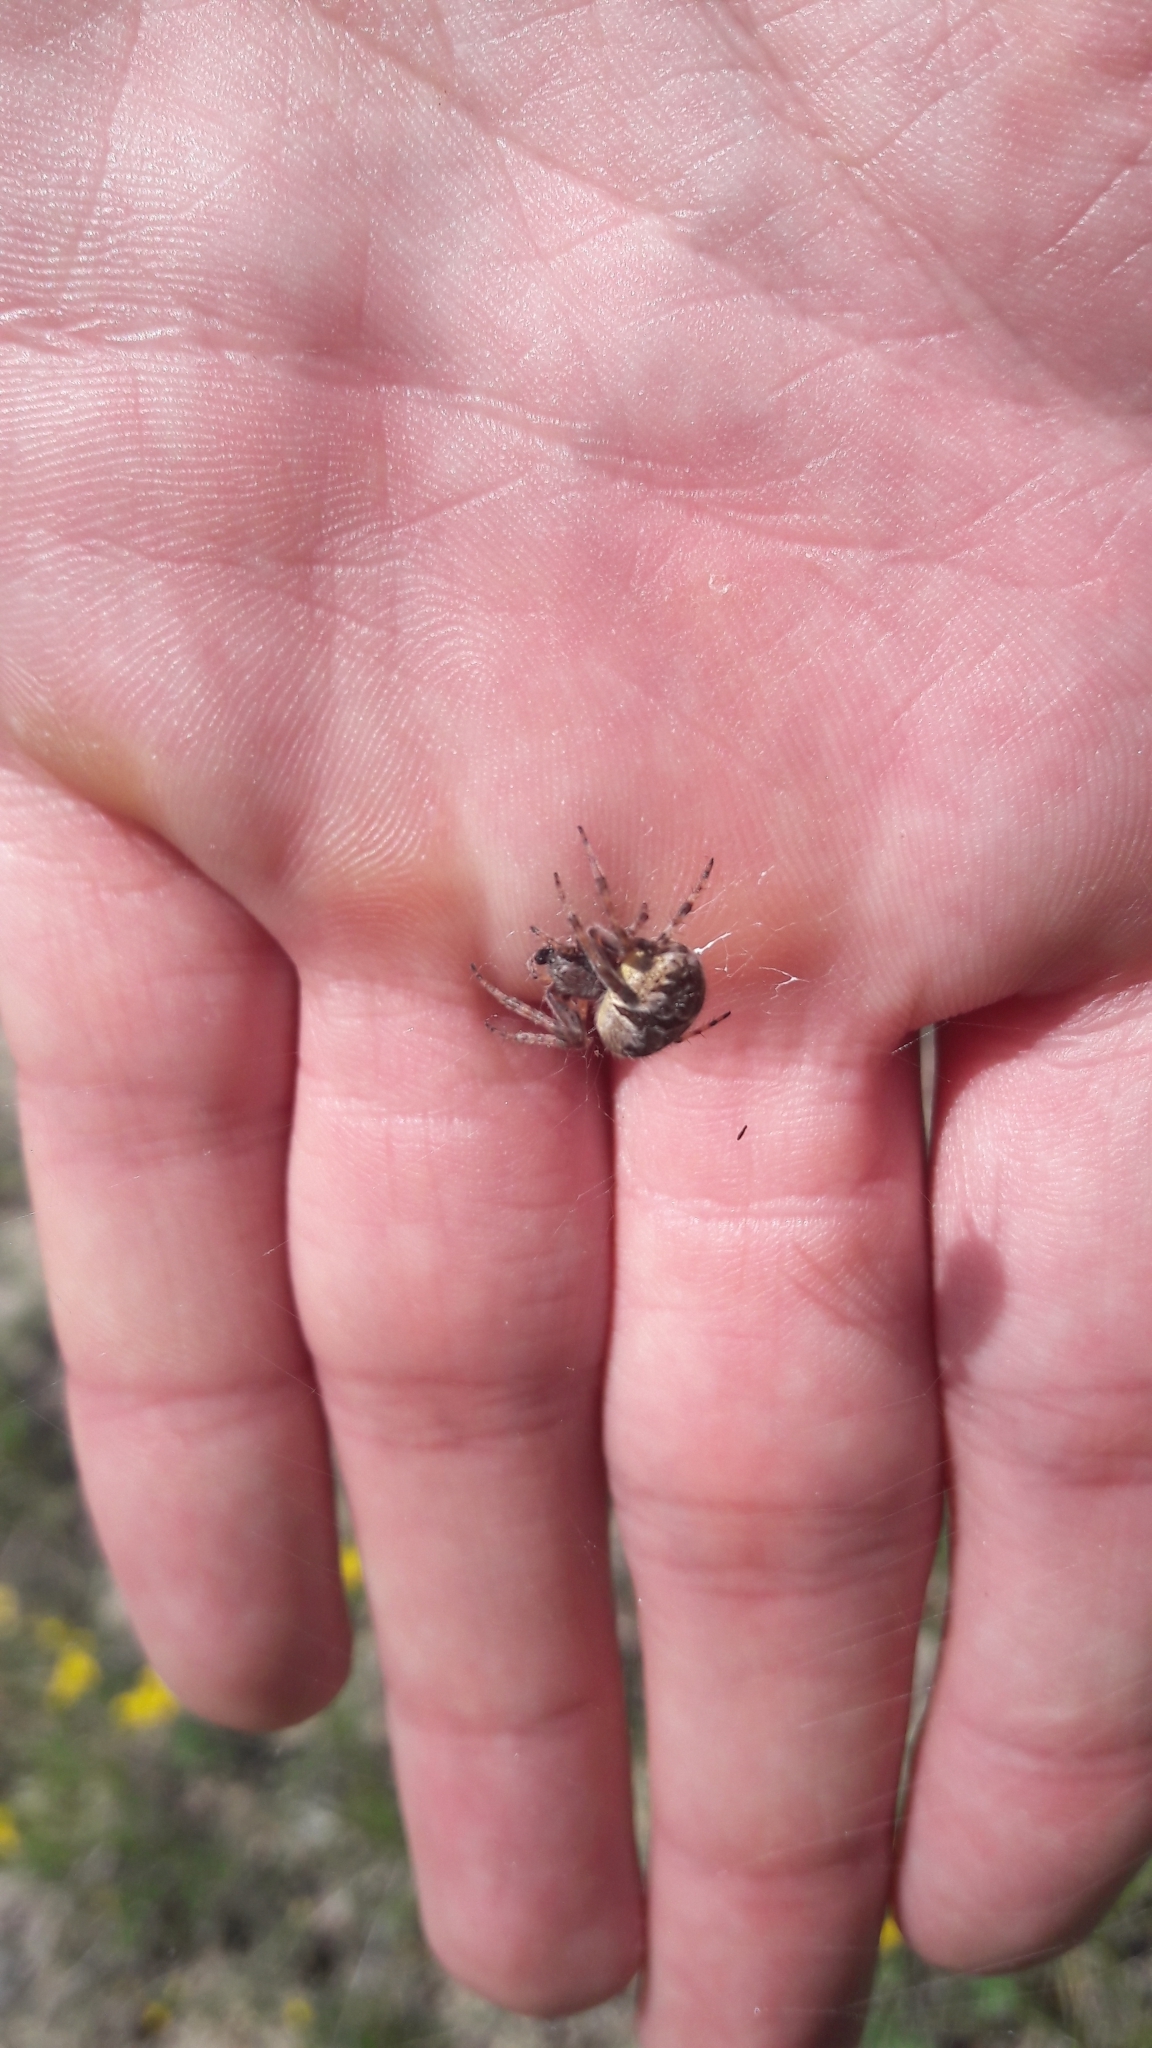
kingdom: Animalia
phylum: Arthropoda
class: Arachnida
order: Araneae
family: Araneidae
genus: Agalenatea
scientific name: Agalenatea redii
